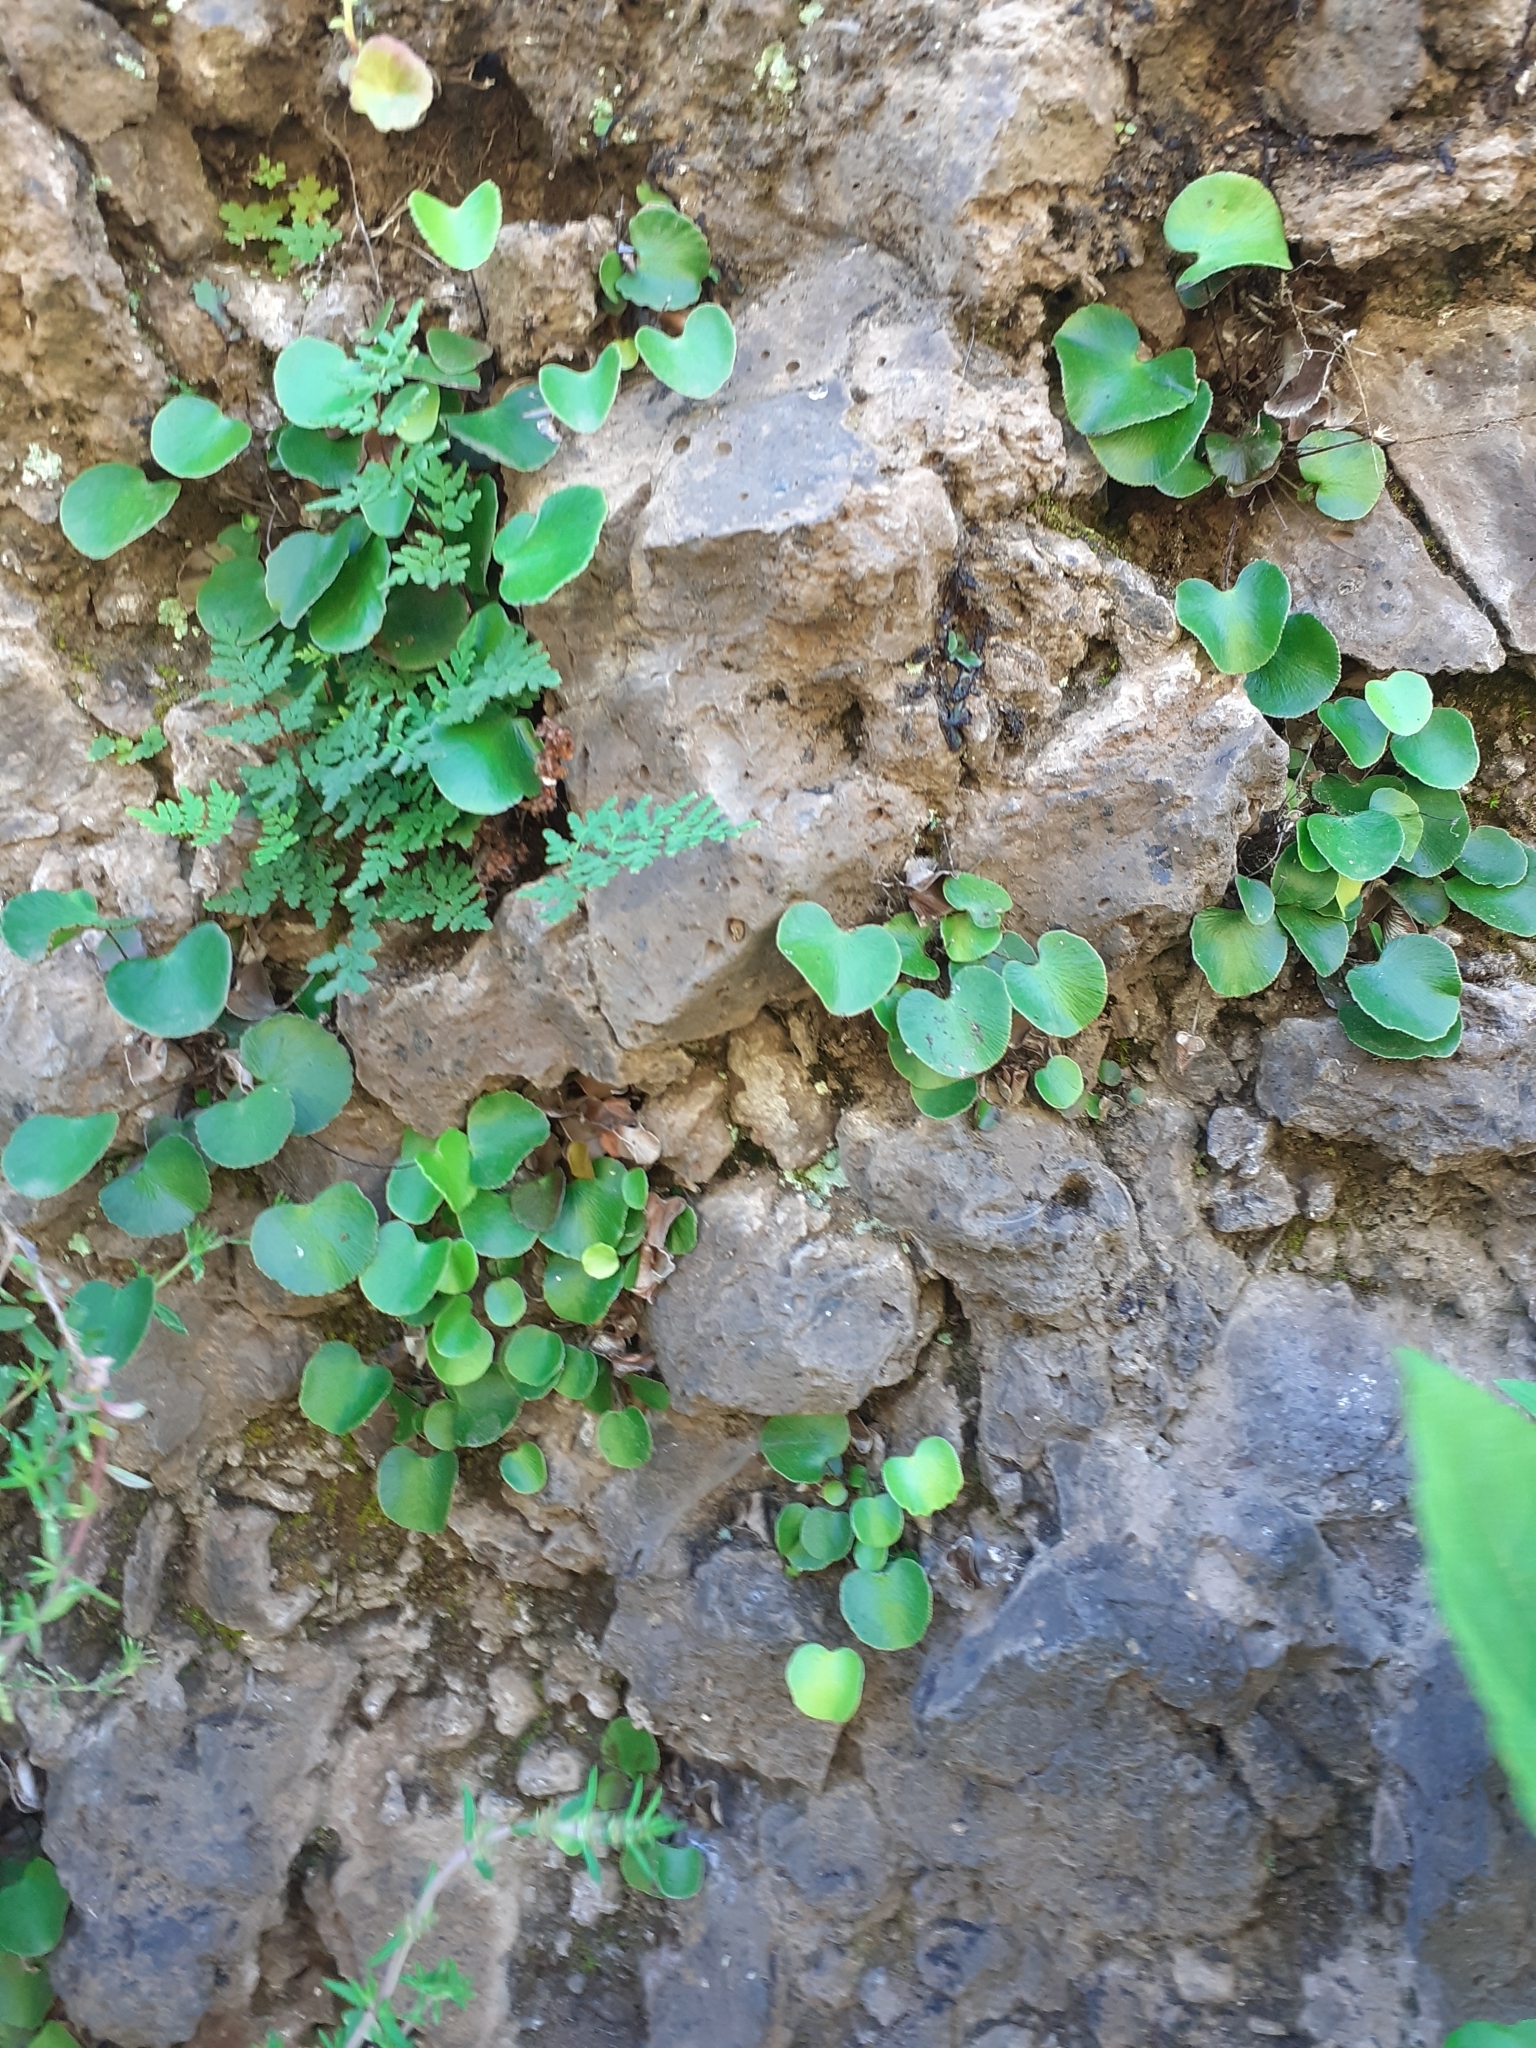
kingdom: Plantae
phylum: Tracheophyta
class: Polypodiopsida
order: Polypodiales
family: Pteridaceae
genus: Adiantum
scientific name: Adiantum reniforme
